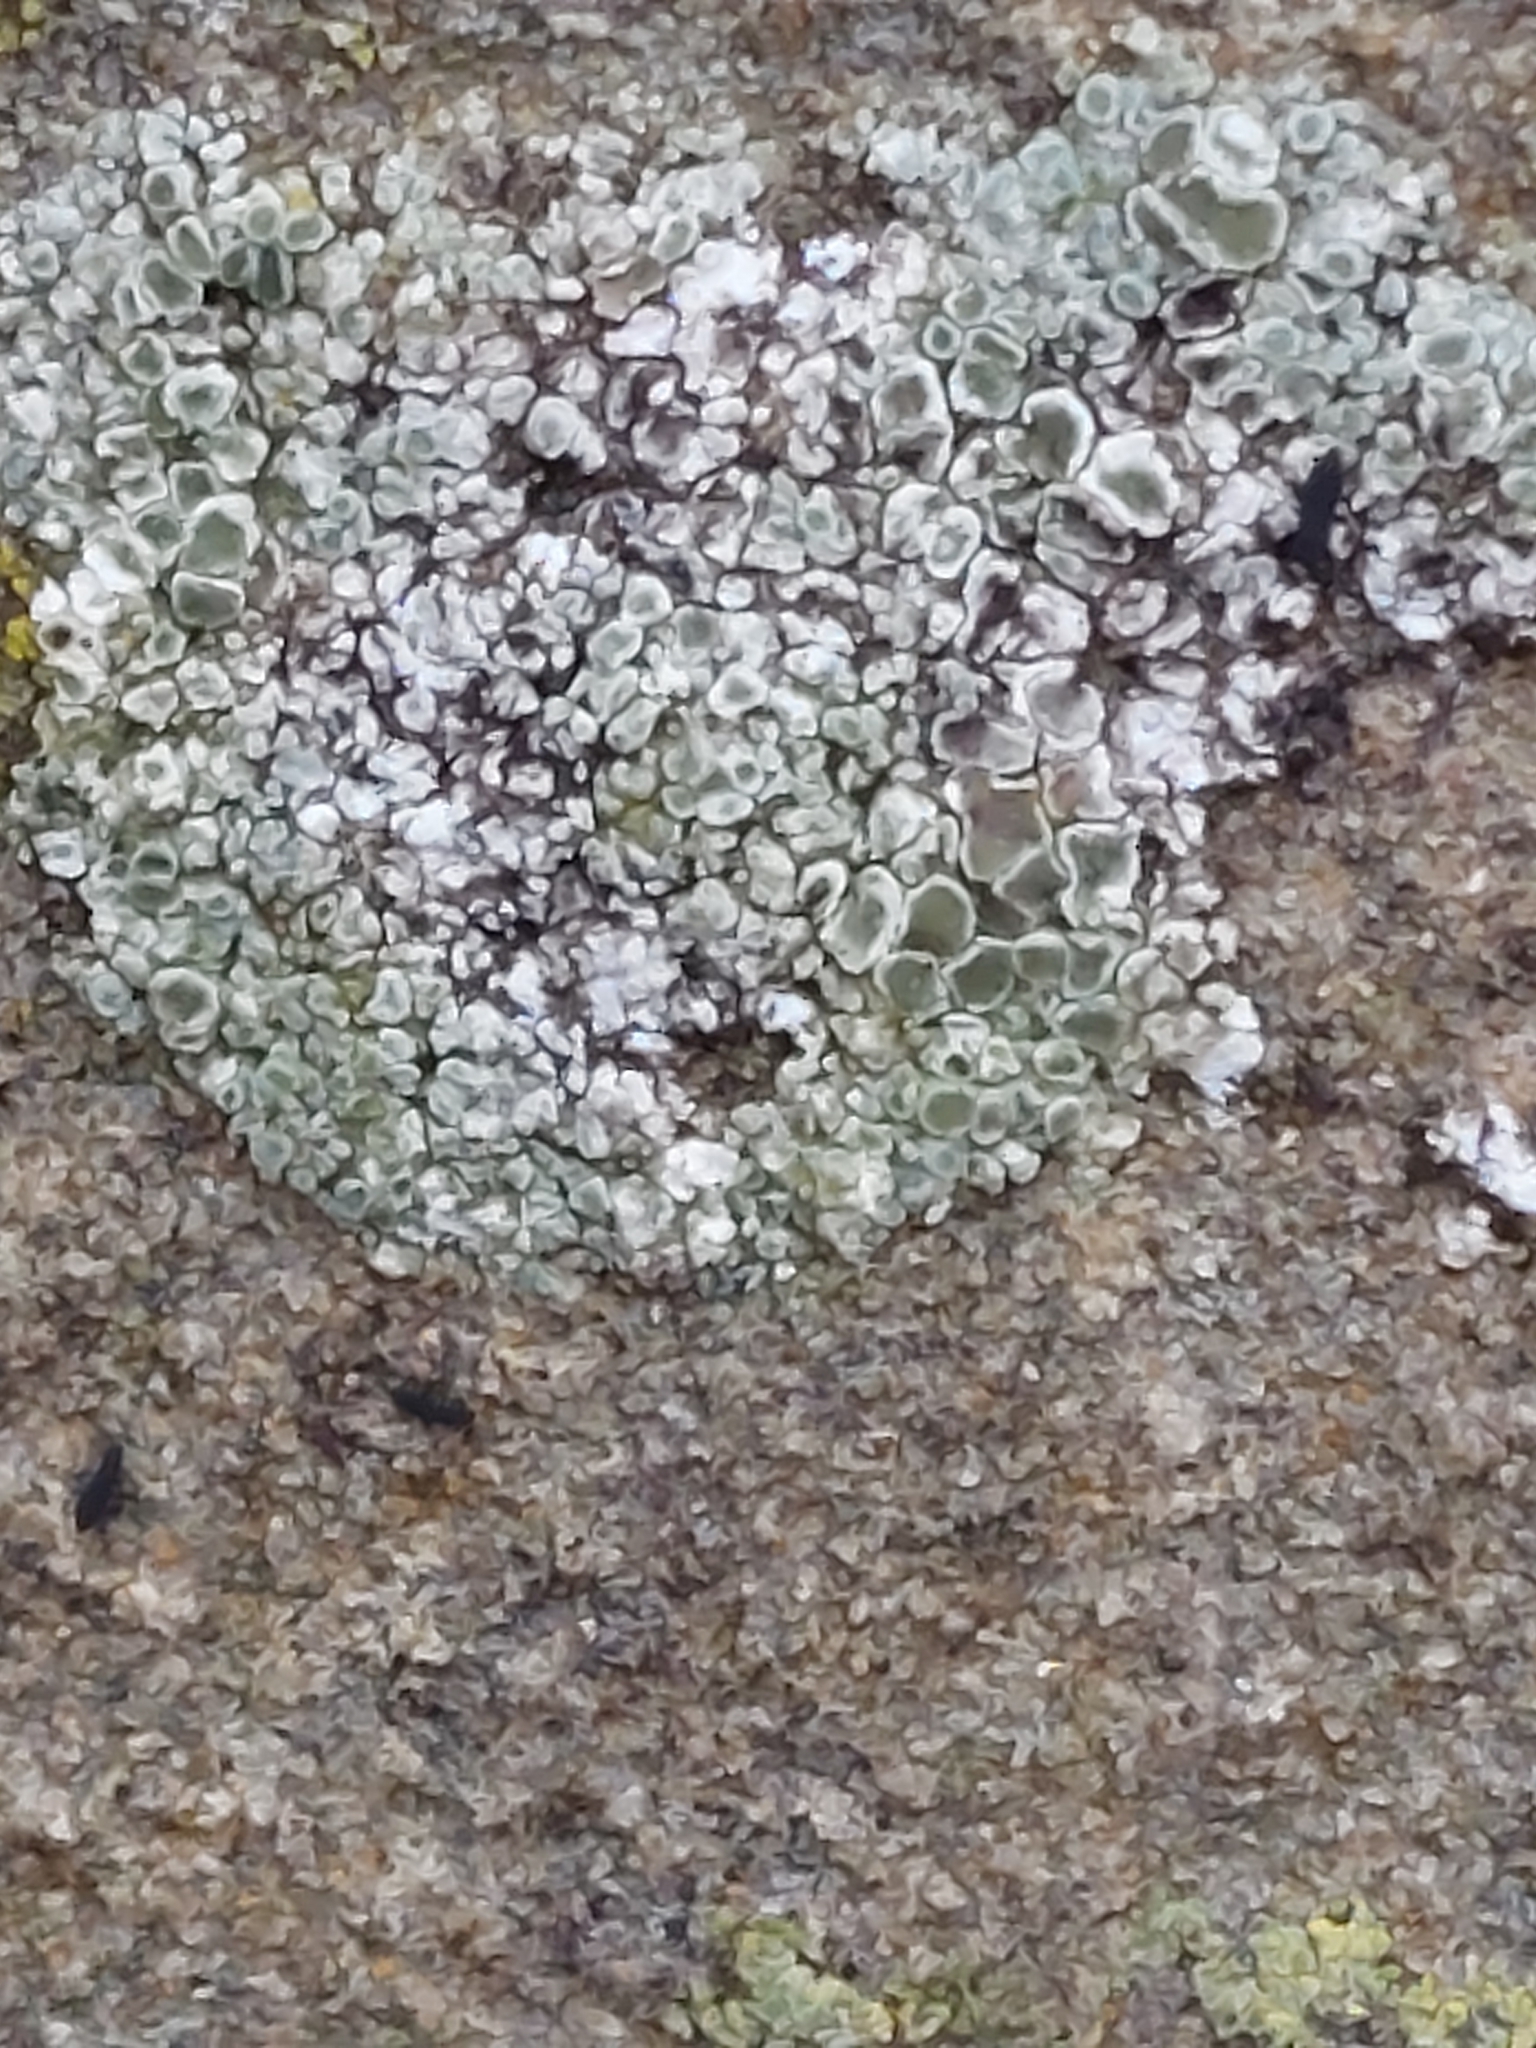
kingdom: Fungi
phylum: Ascomycota
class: Lecanoromycetes
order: Lecanorales
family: Lecanoraceae
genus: Polyozosia
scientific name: Polyozosia albescens
